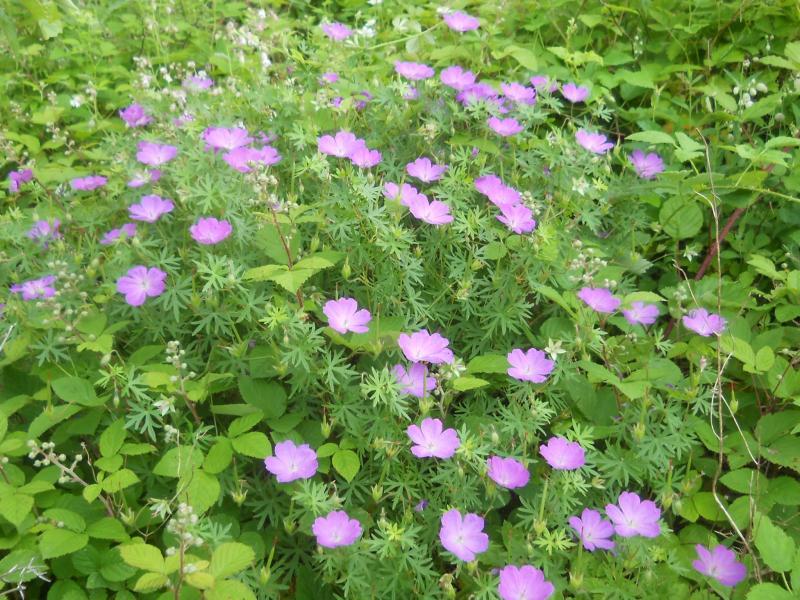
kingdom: Plantae
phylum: Tracheophyta
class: Magnoliopsida
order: Geraniales
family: Geraniaceae
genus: Geranium
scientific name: Geranium sanguineum
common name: Bloody crane's-bill
